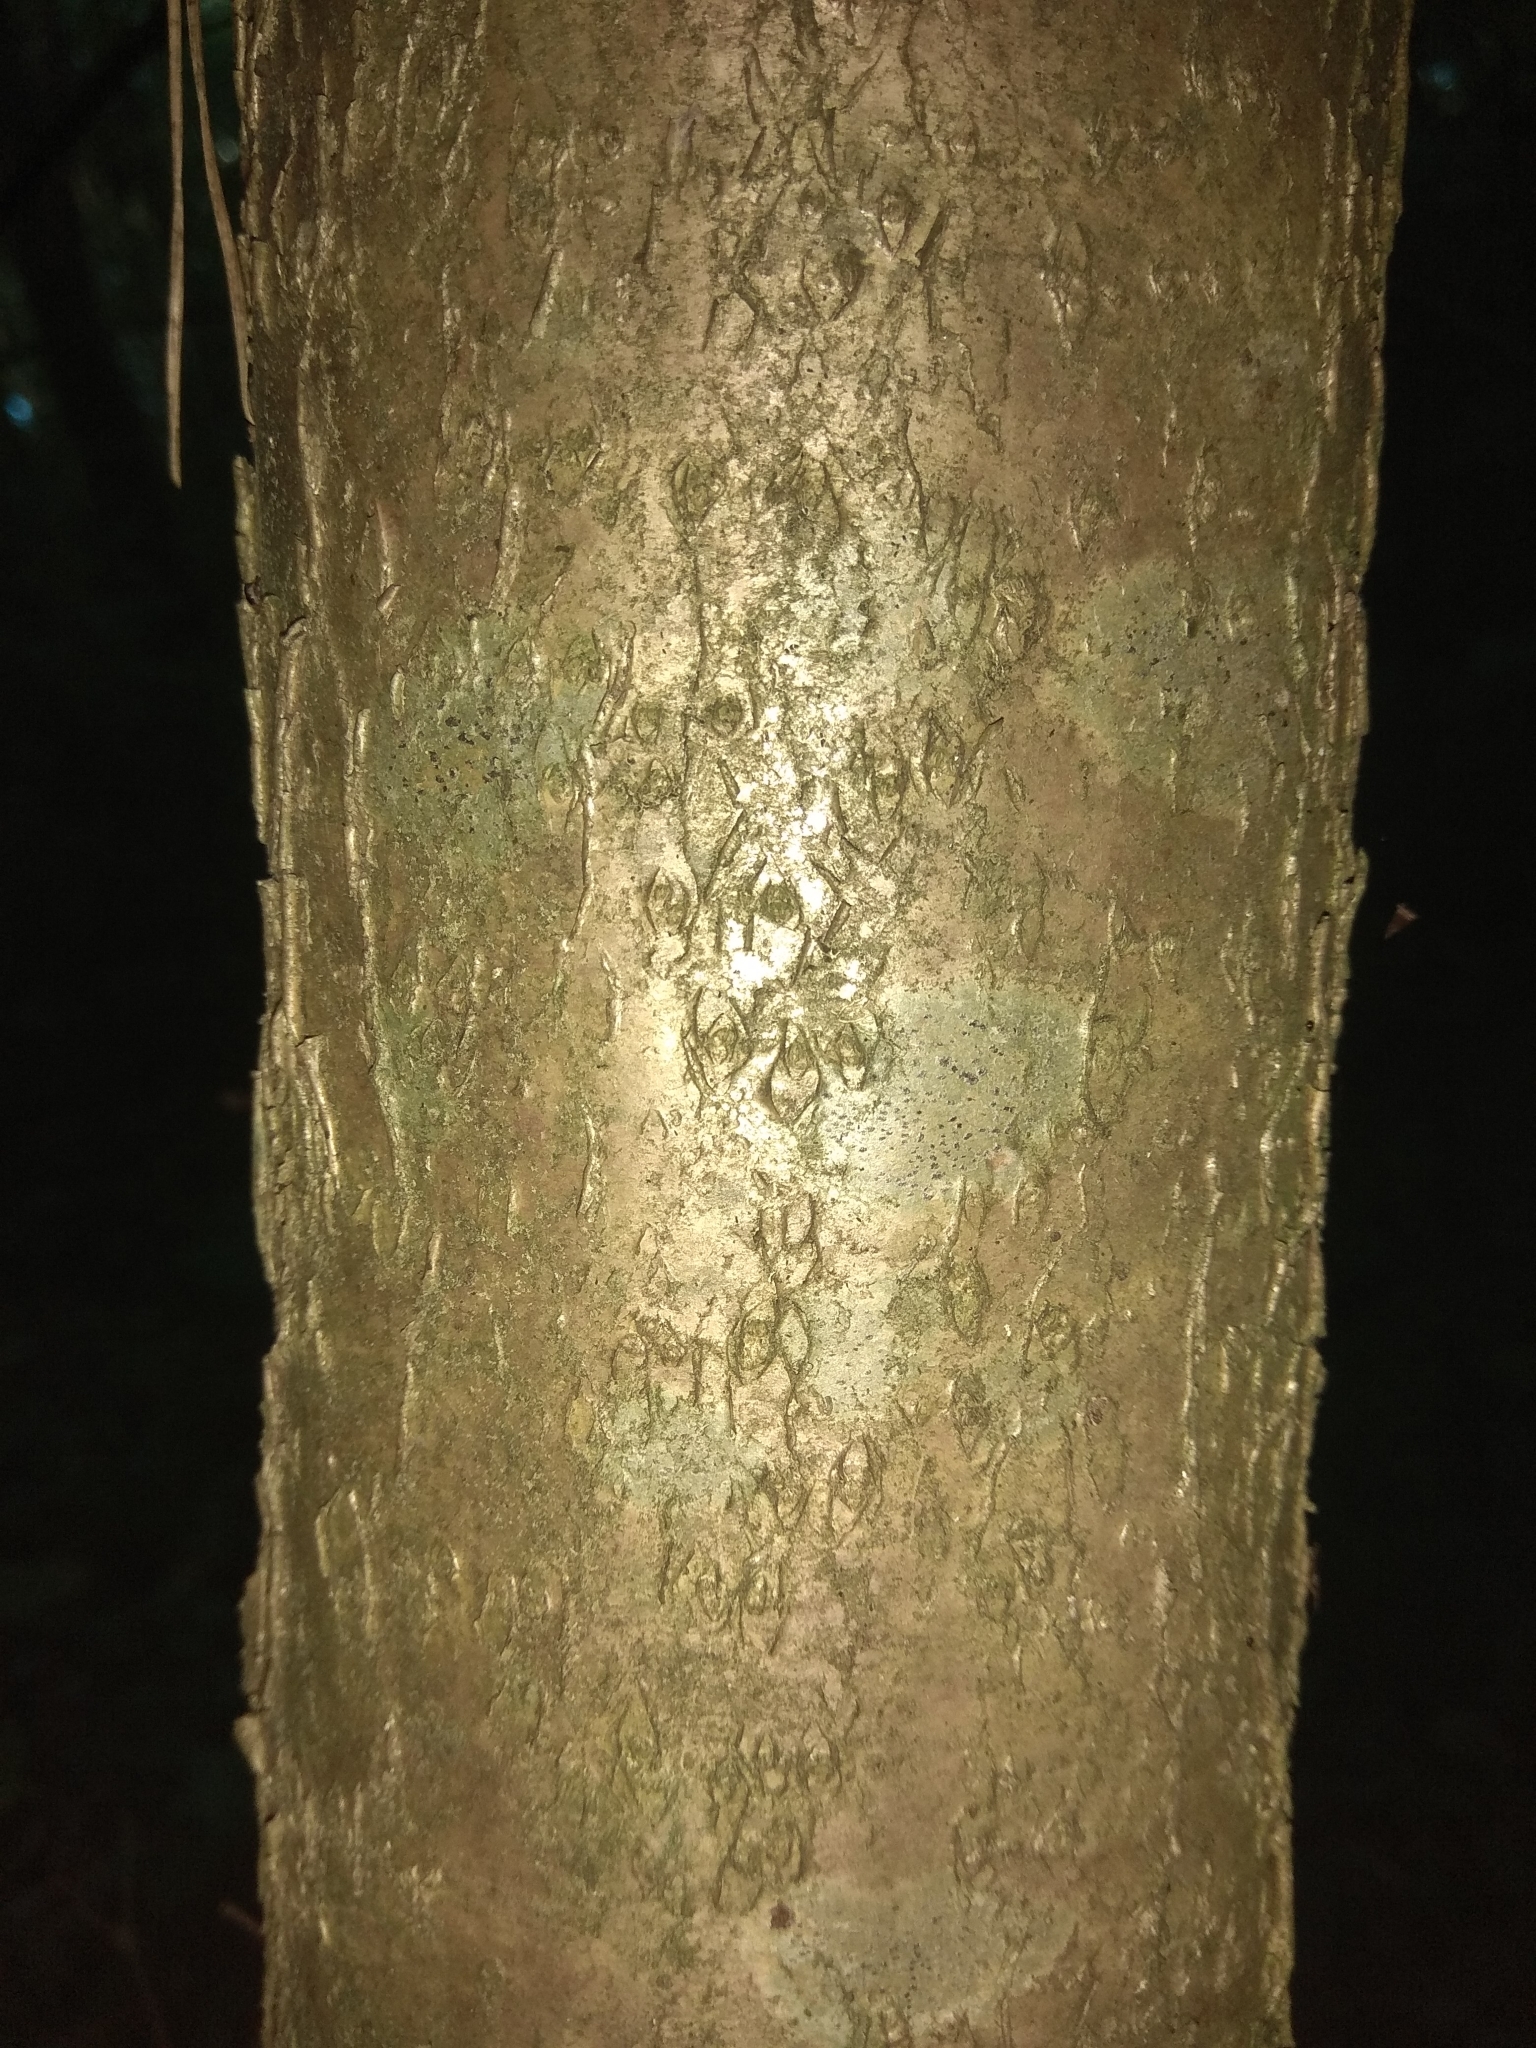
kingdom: Plantae
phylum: Tracheophyta
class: Magnoliopsida
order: Fagales
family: Betulaceae
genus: Corylus
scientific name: Corylus avellana
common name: European hazel
